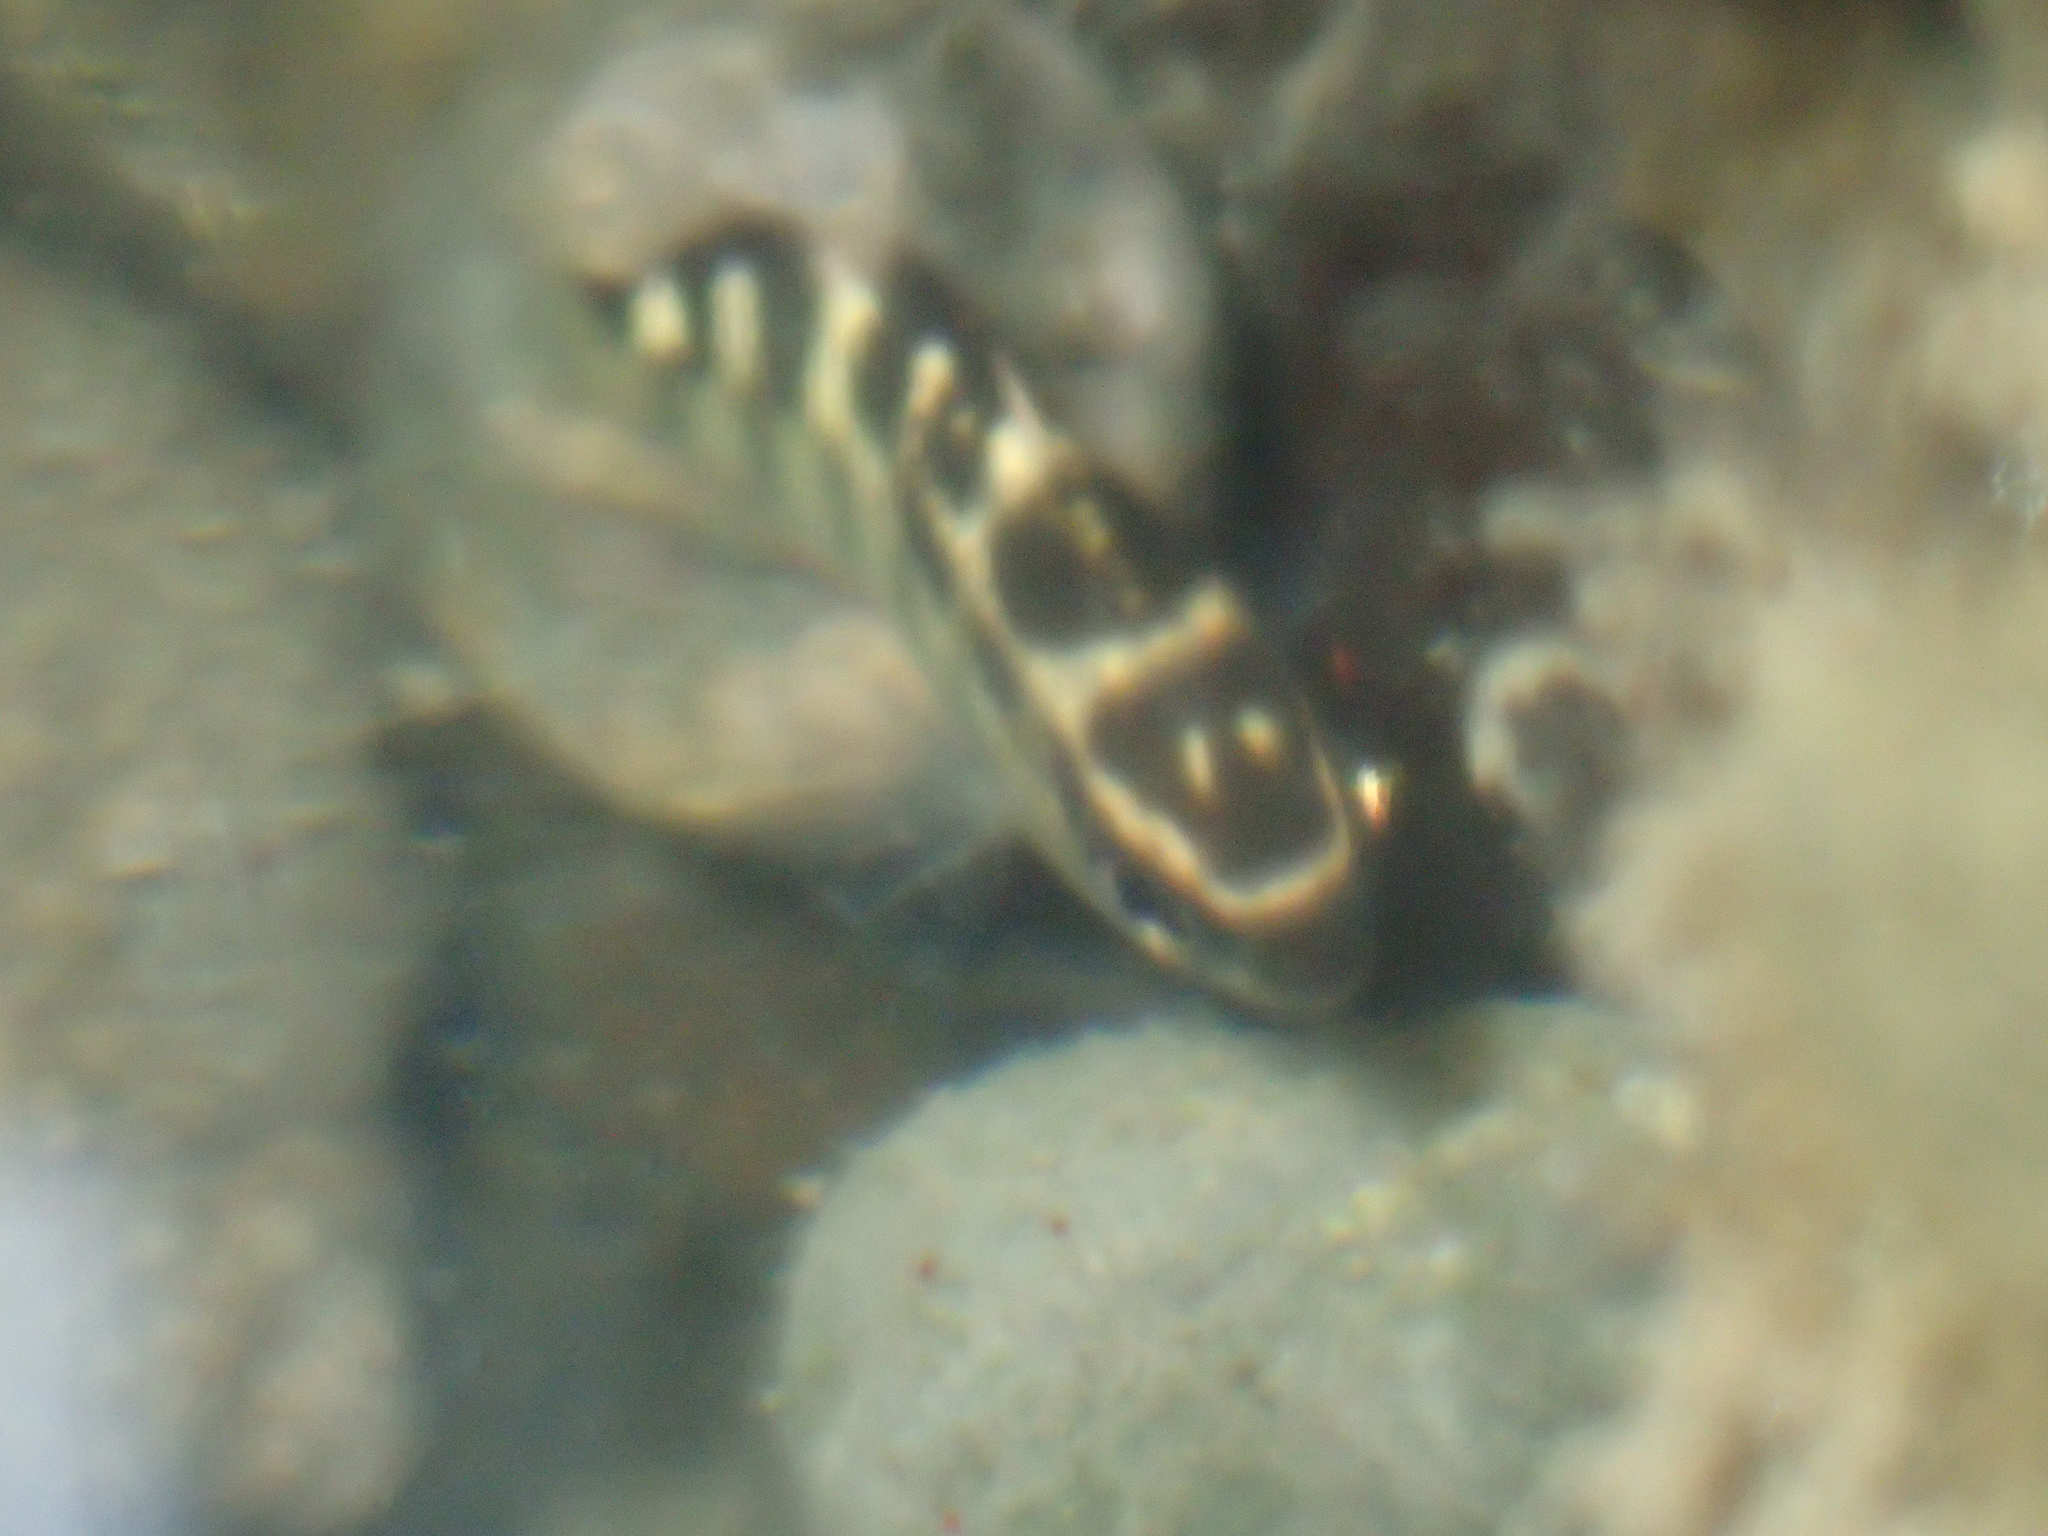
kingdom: Animalia
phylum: Chordata
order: Perciformes
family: Pomacentridae
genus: Abudefduf
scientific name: Abudefduf concolor
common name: Dusky seargent
